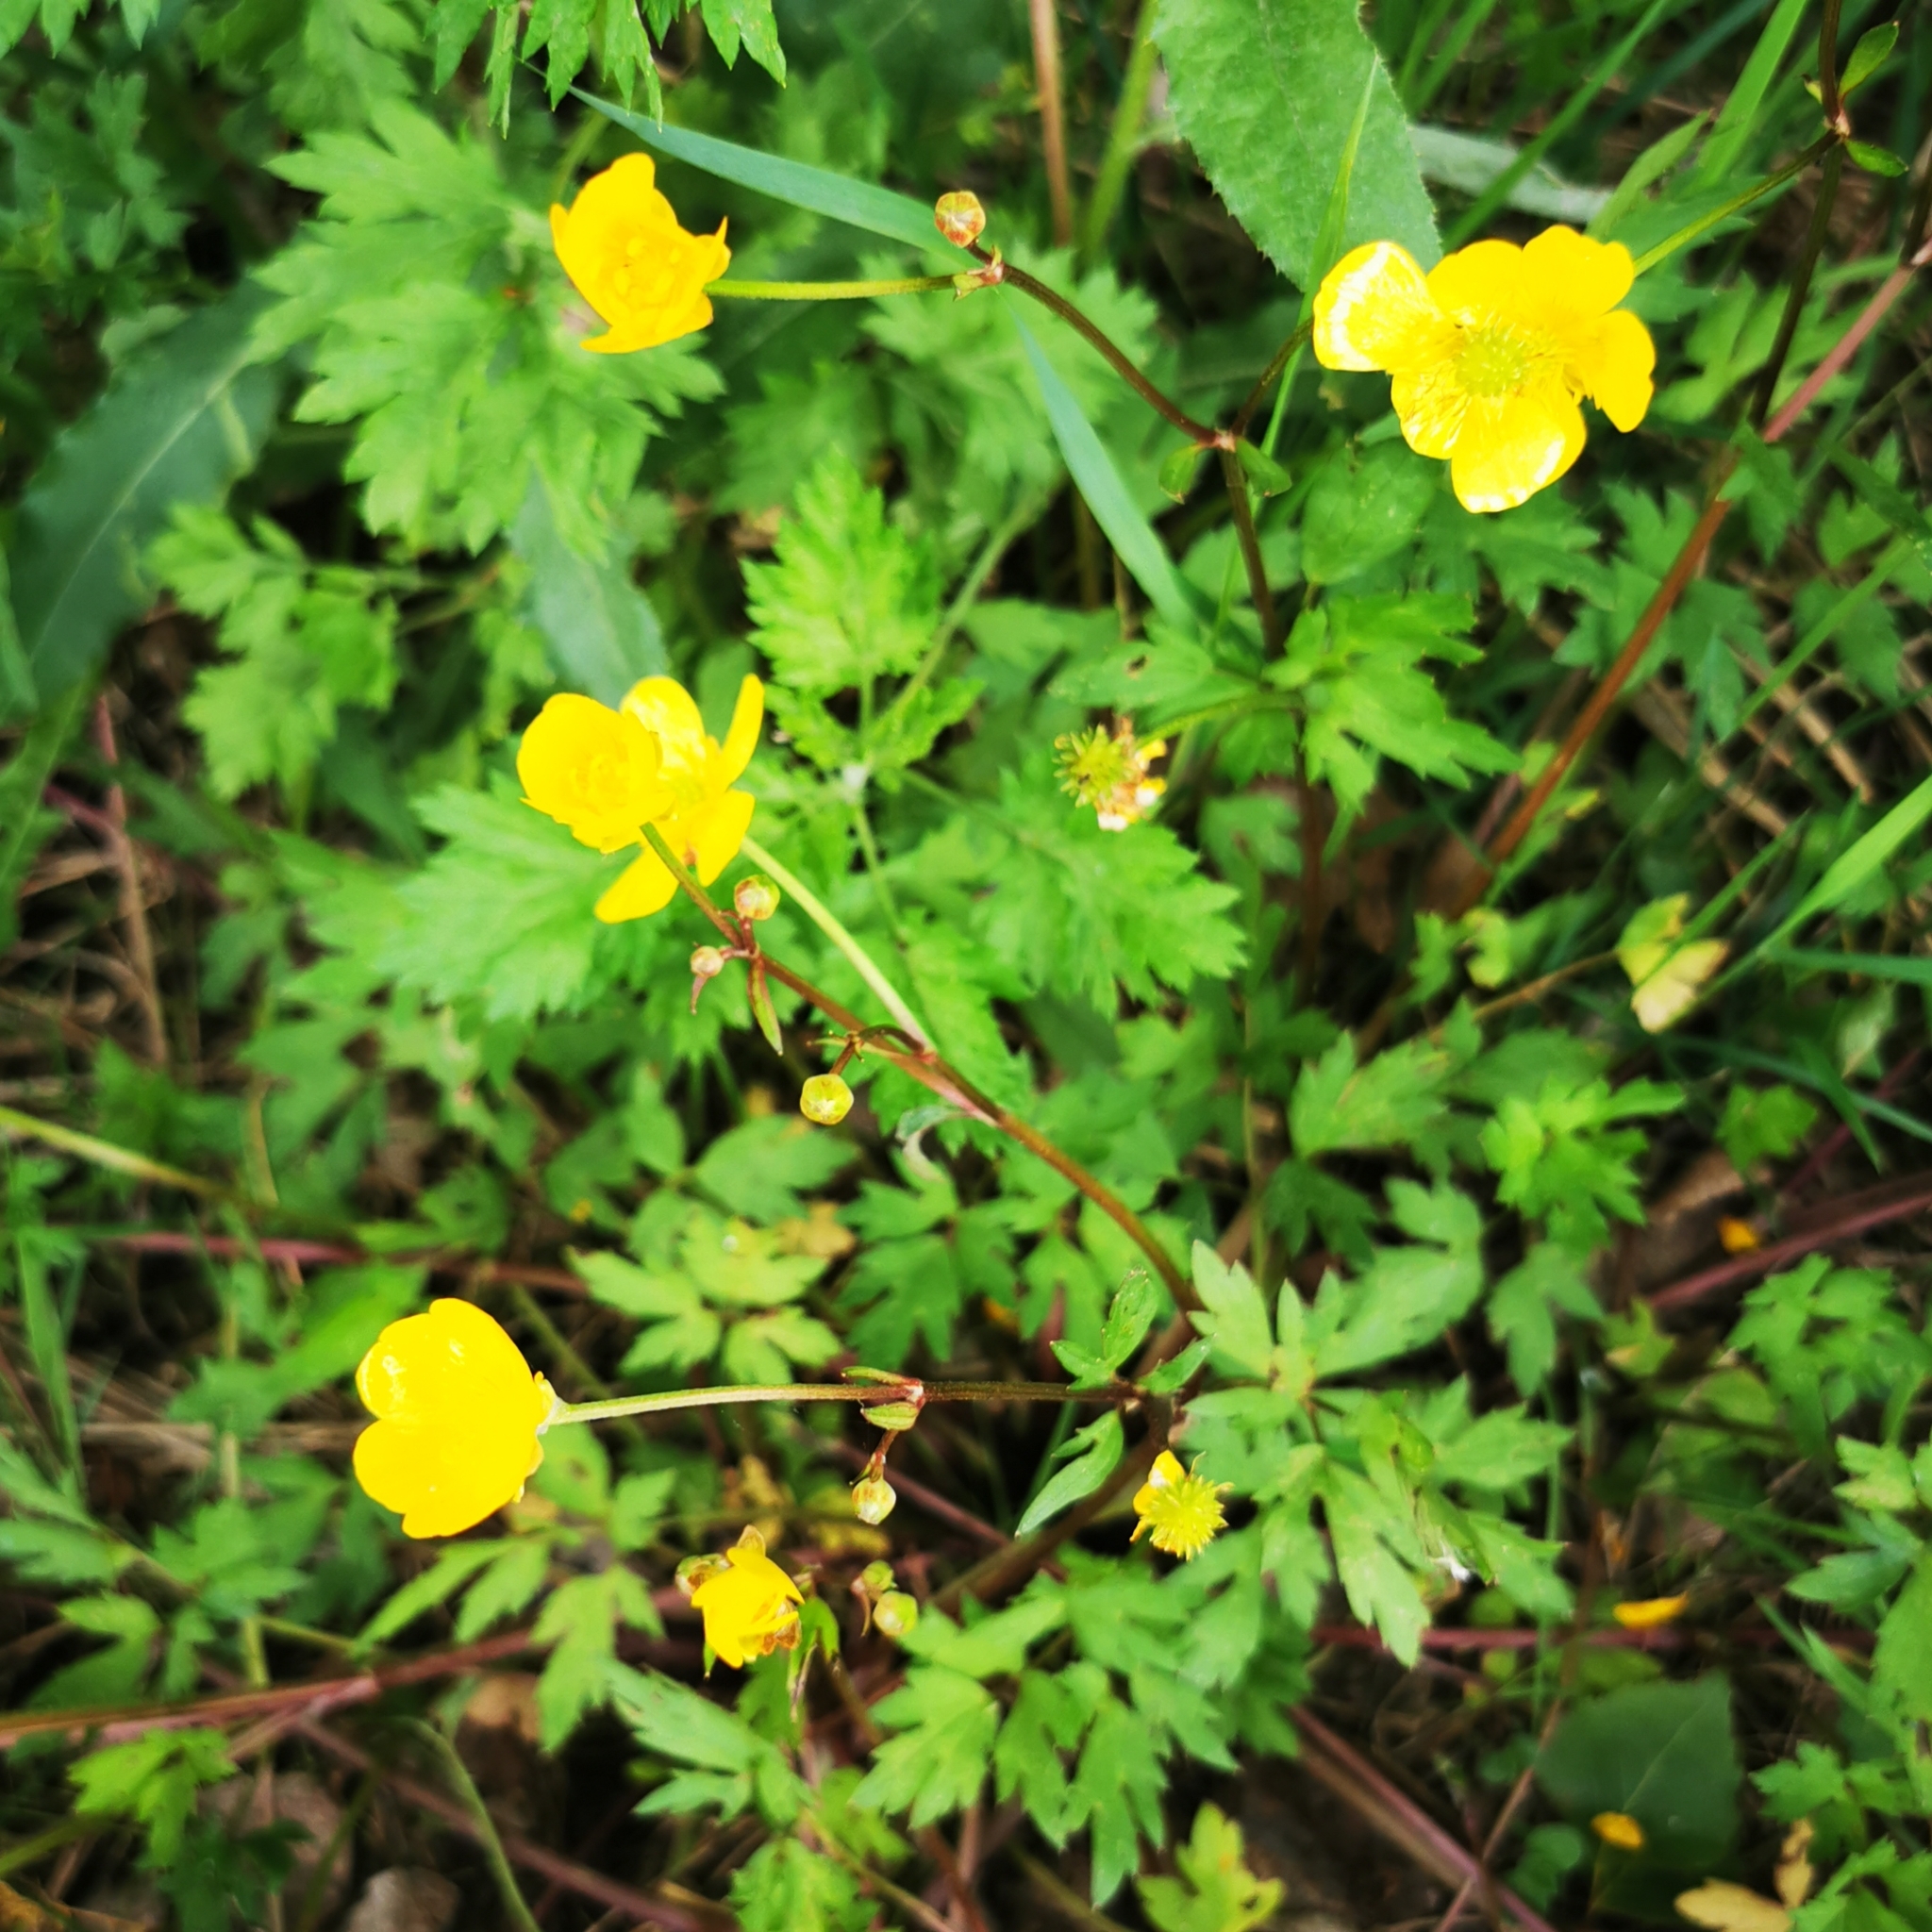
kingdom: Plantae
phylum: Tracheophyta
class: Magnoliopsida
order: Ranunculales
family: Ranunculaceae
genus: Ranunculus
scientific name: Ranunculus repens
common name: Creeping buttercup
